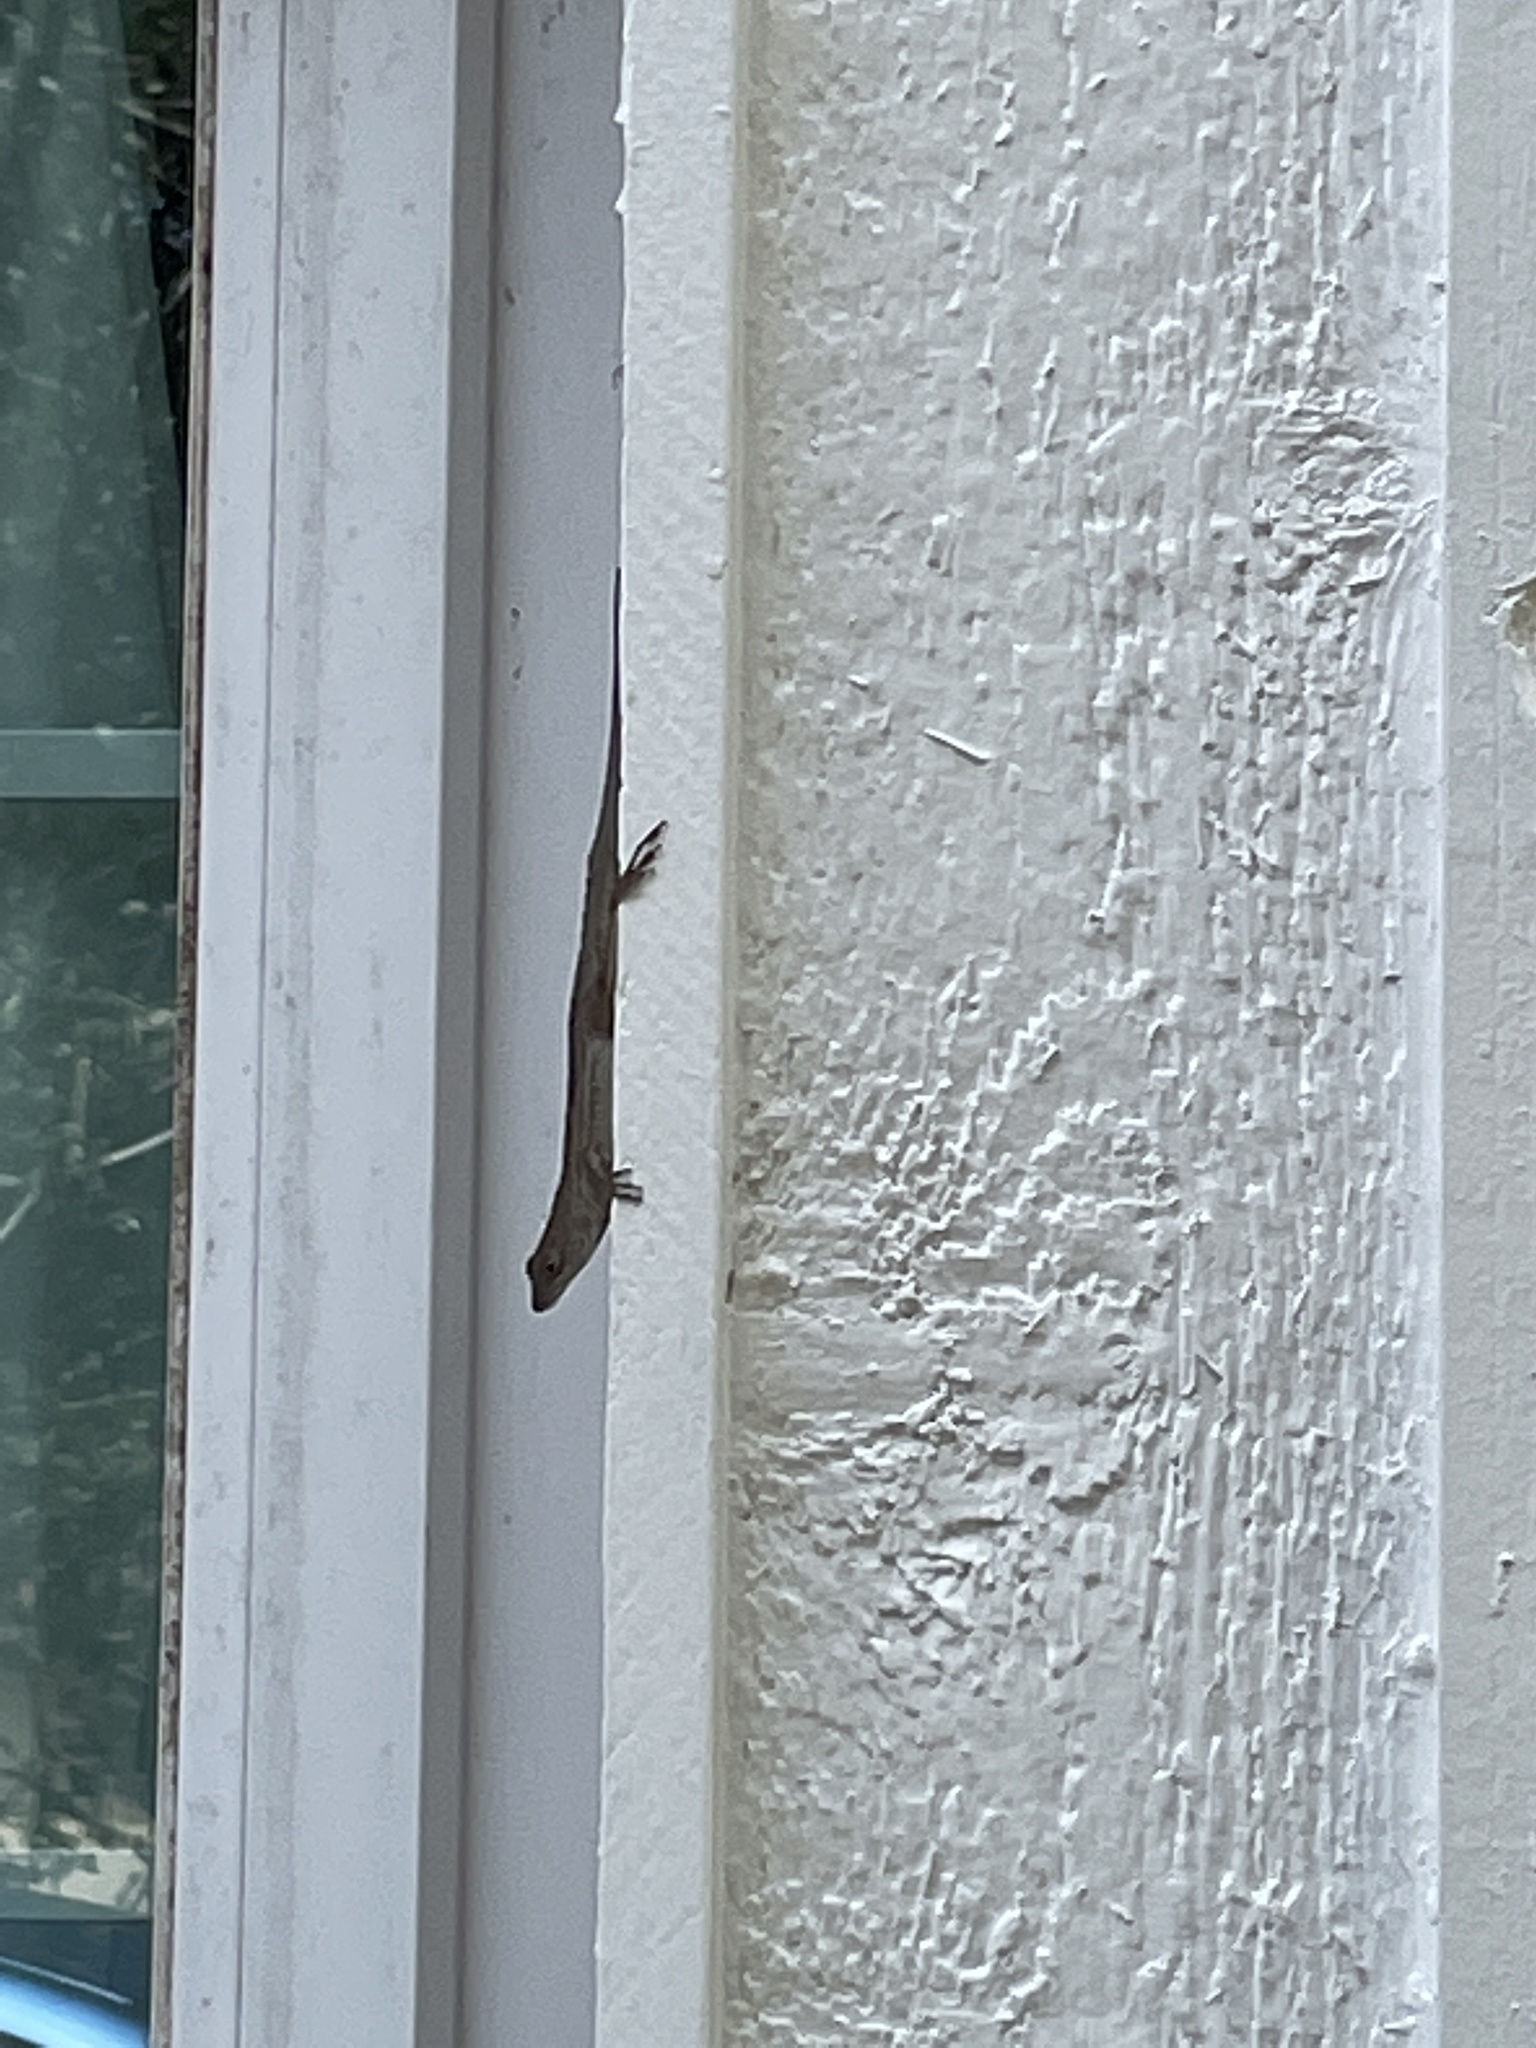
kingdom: Animalia
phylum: Chordata
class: Squamata
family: Dactyloidae
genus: Anolis
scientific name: Anolis sagrei
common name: Brown anole
